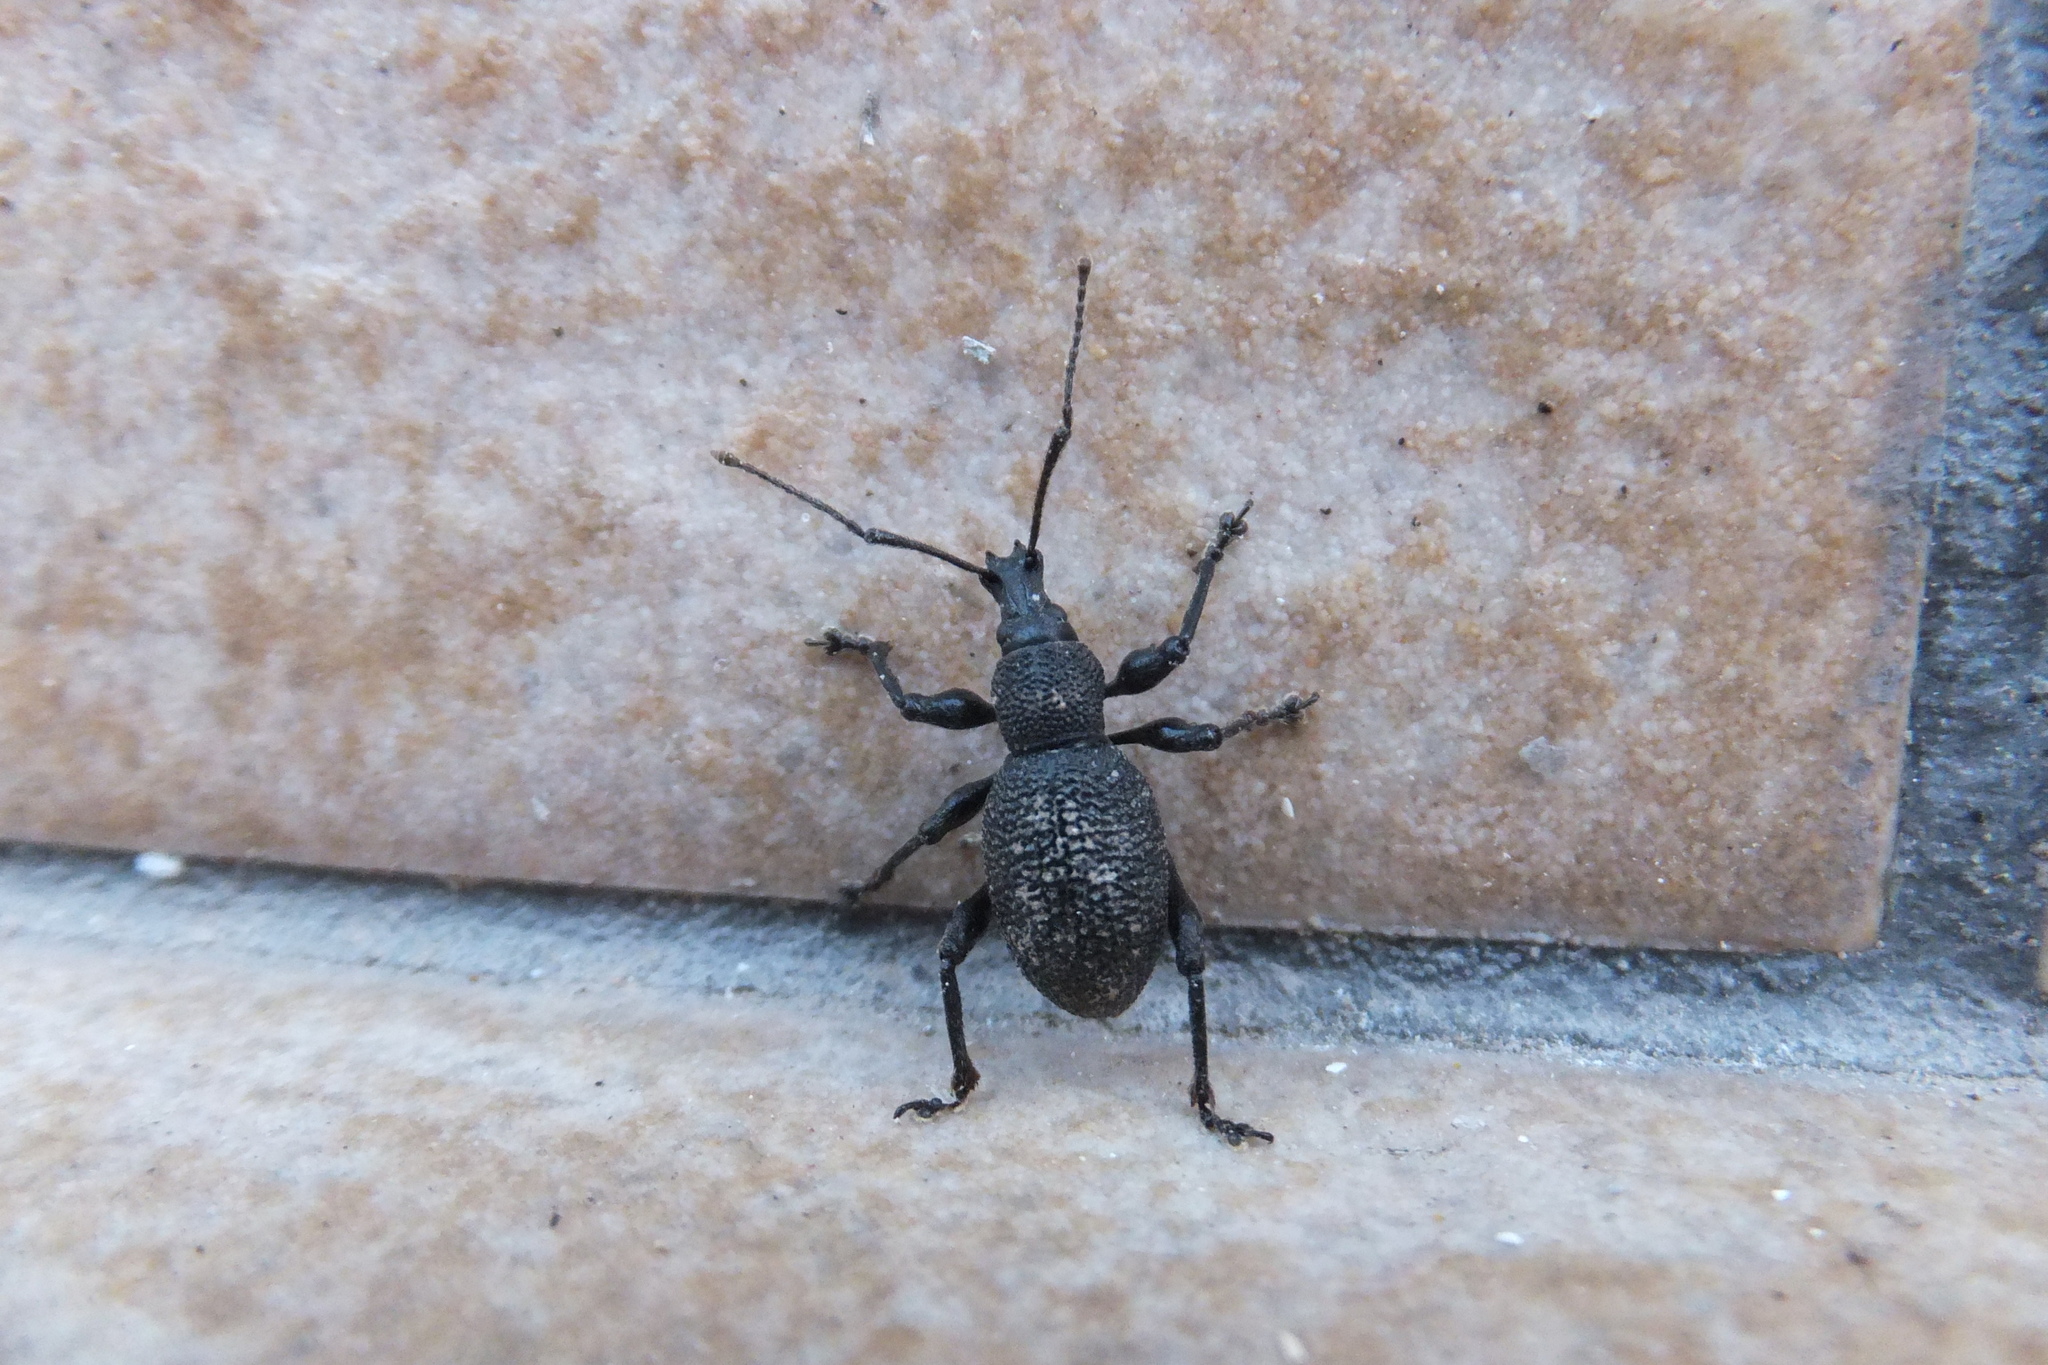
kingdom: Animalia
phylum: Arthropoda
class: Insecta
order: Coleoptera
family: Curculionidae
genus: Otiorhynchus
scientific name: Otiorhynchus armatus
